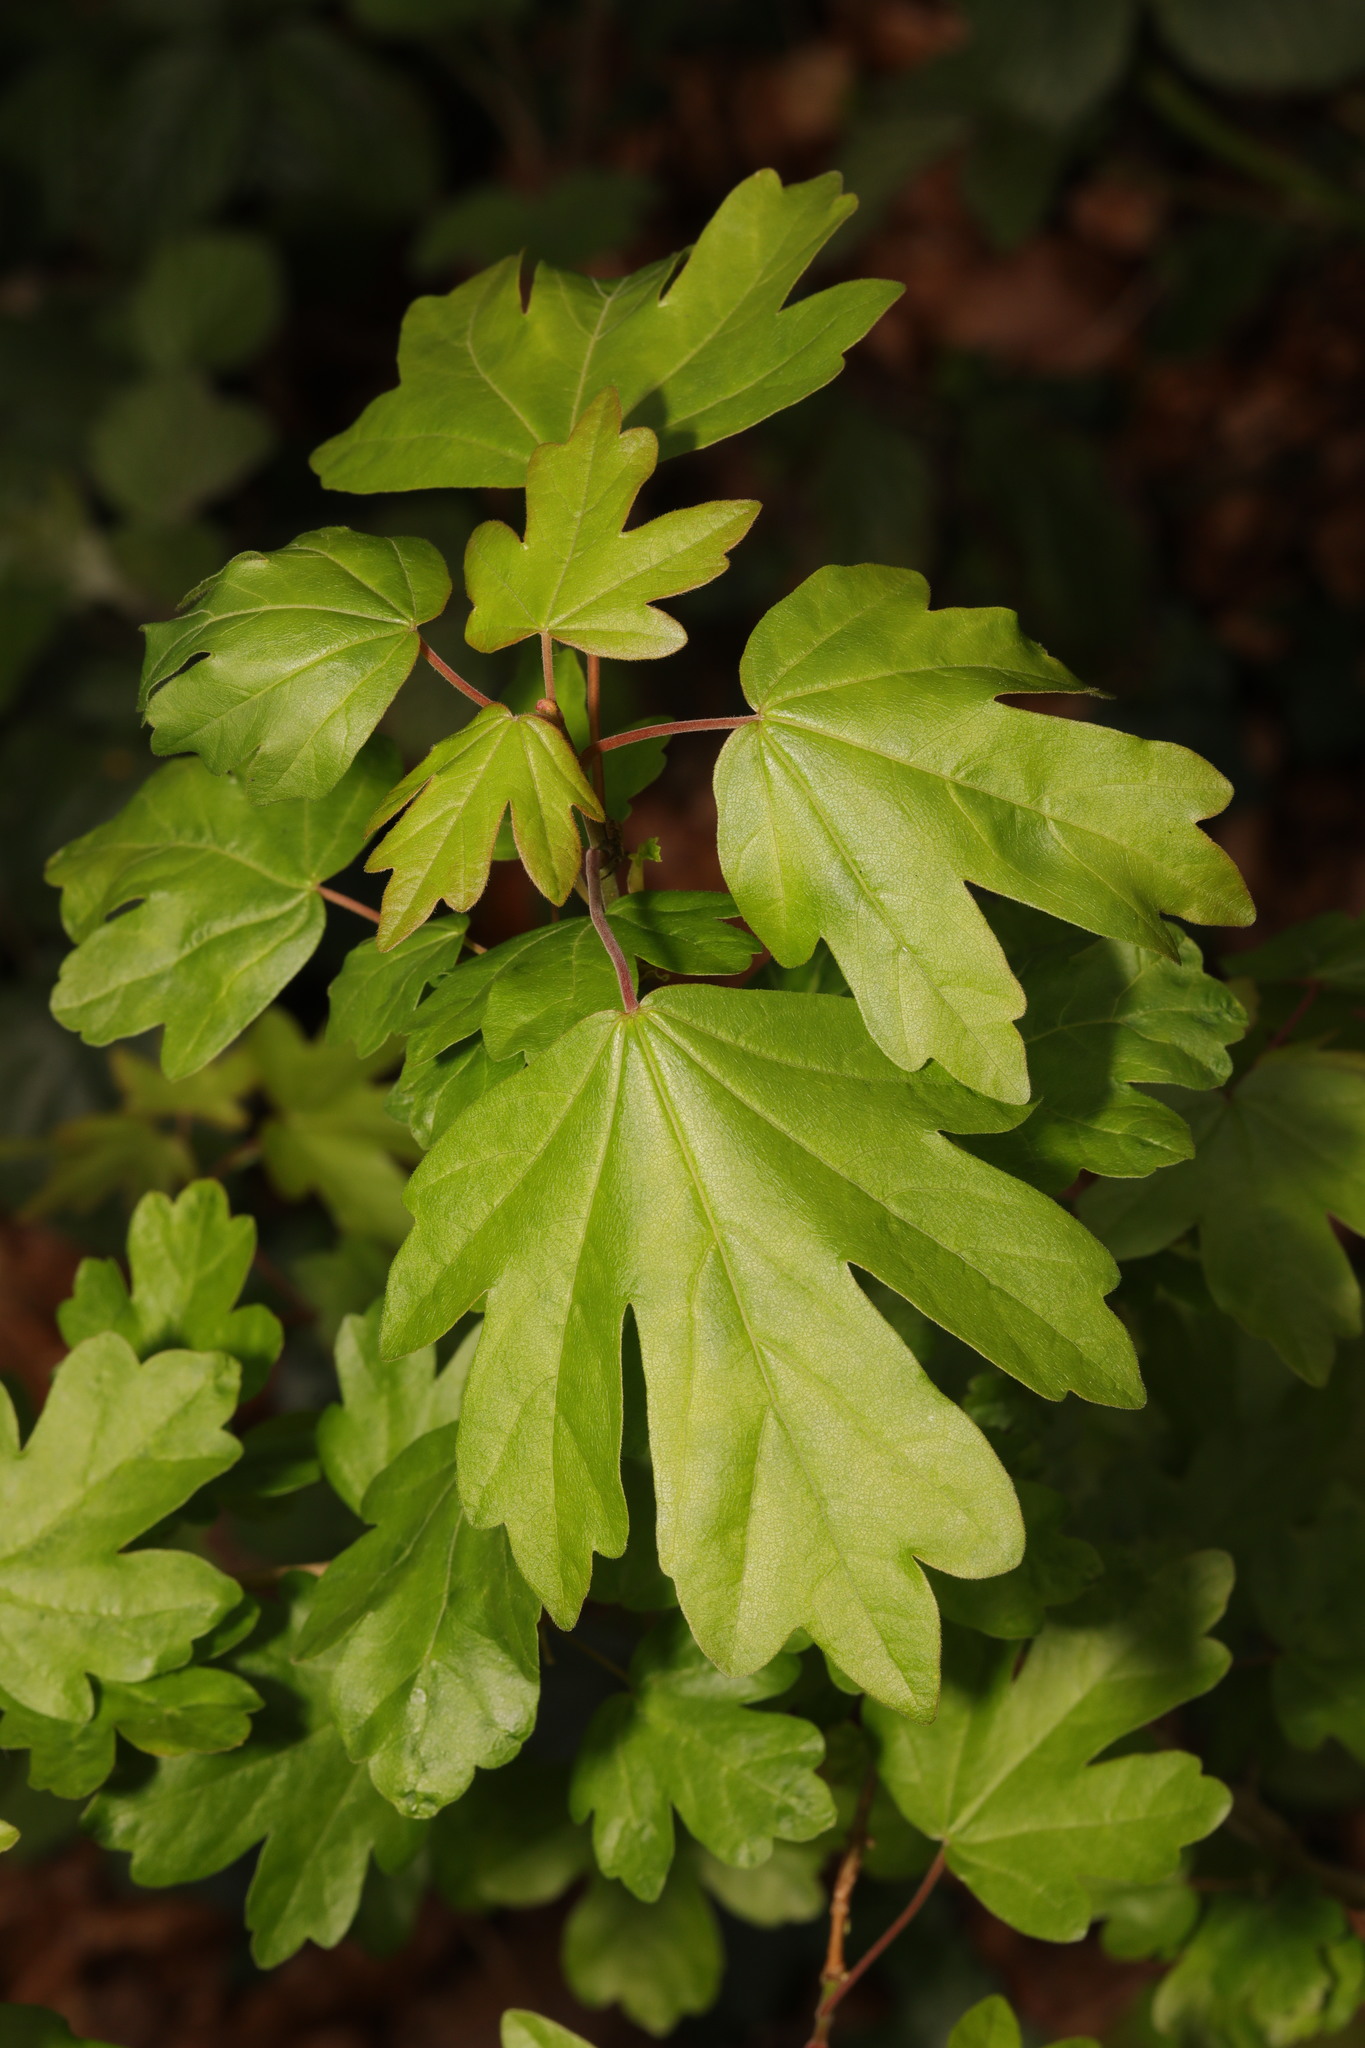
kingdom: Plantae
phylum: Tracheophyta
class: Magnoliopsida
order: Sapindales
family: Sapindaceae
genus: Acer
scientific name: Acer campestre
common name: Field maple
